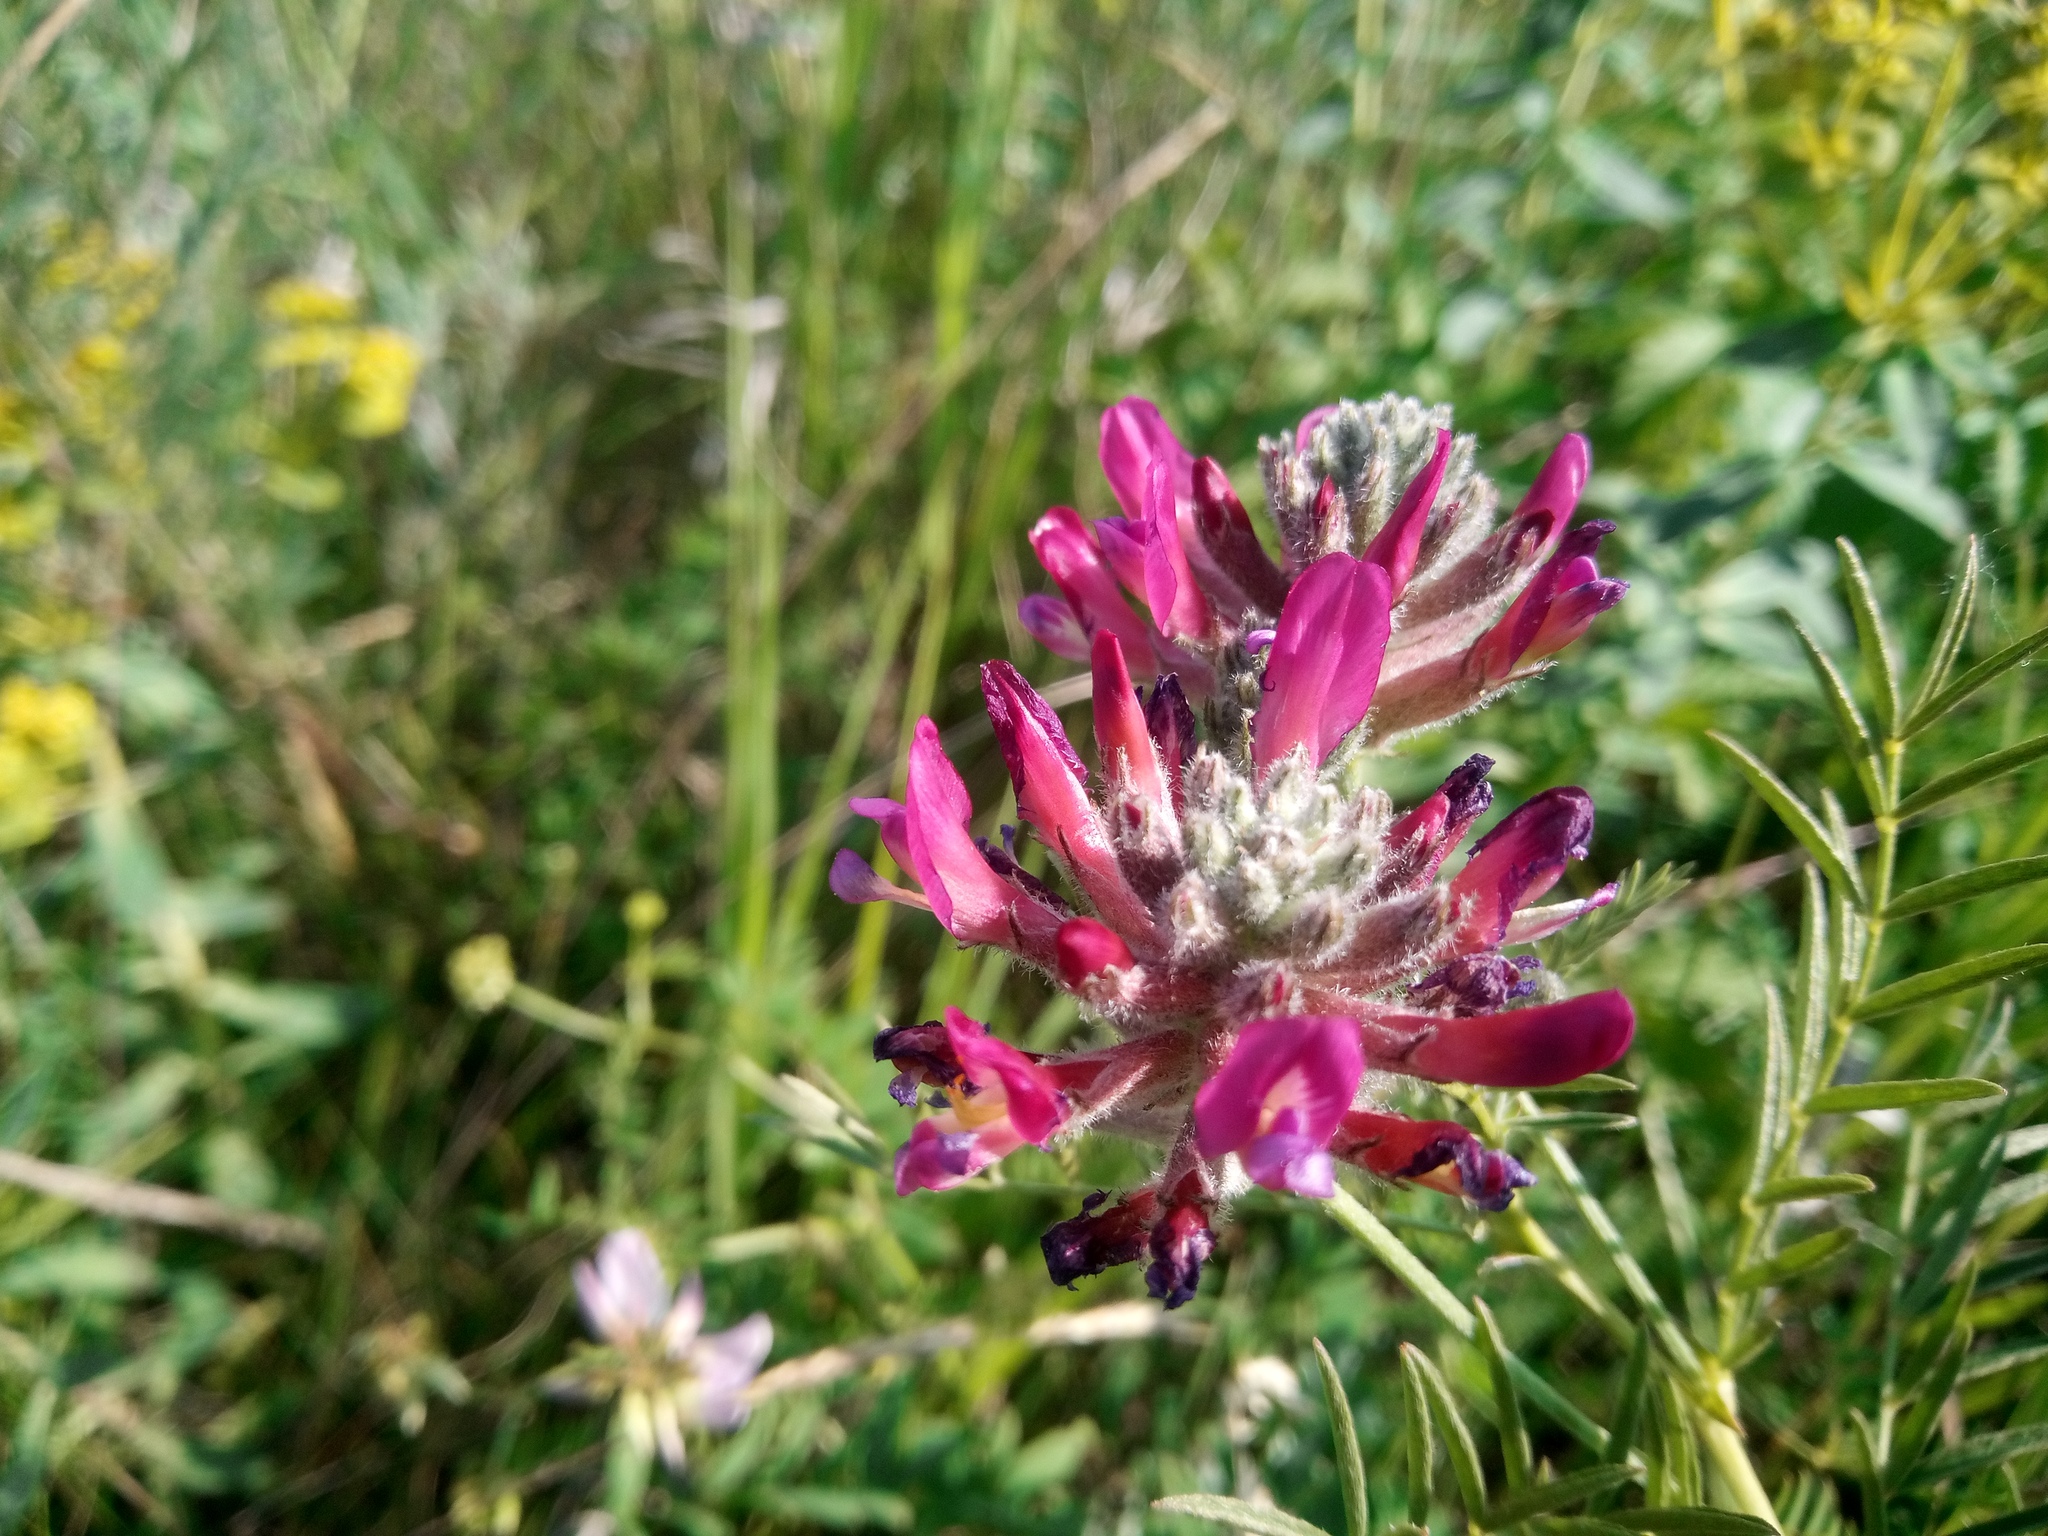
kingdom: Plantae
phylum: Tracheophyta
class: Magnoliopsida
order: Fabales
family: Fabaceae
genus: Astragalus
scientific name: Astragalus cornutus
